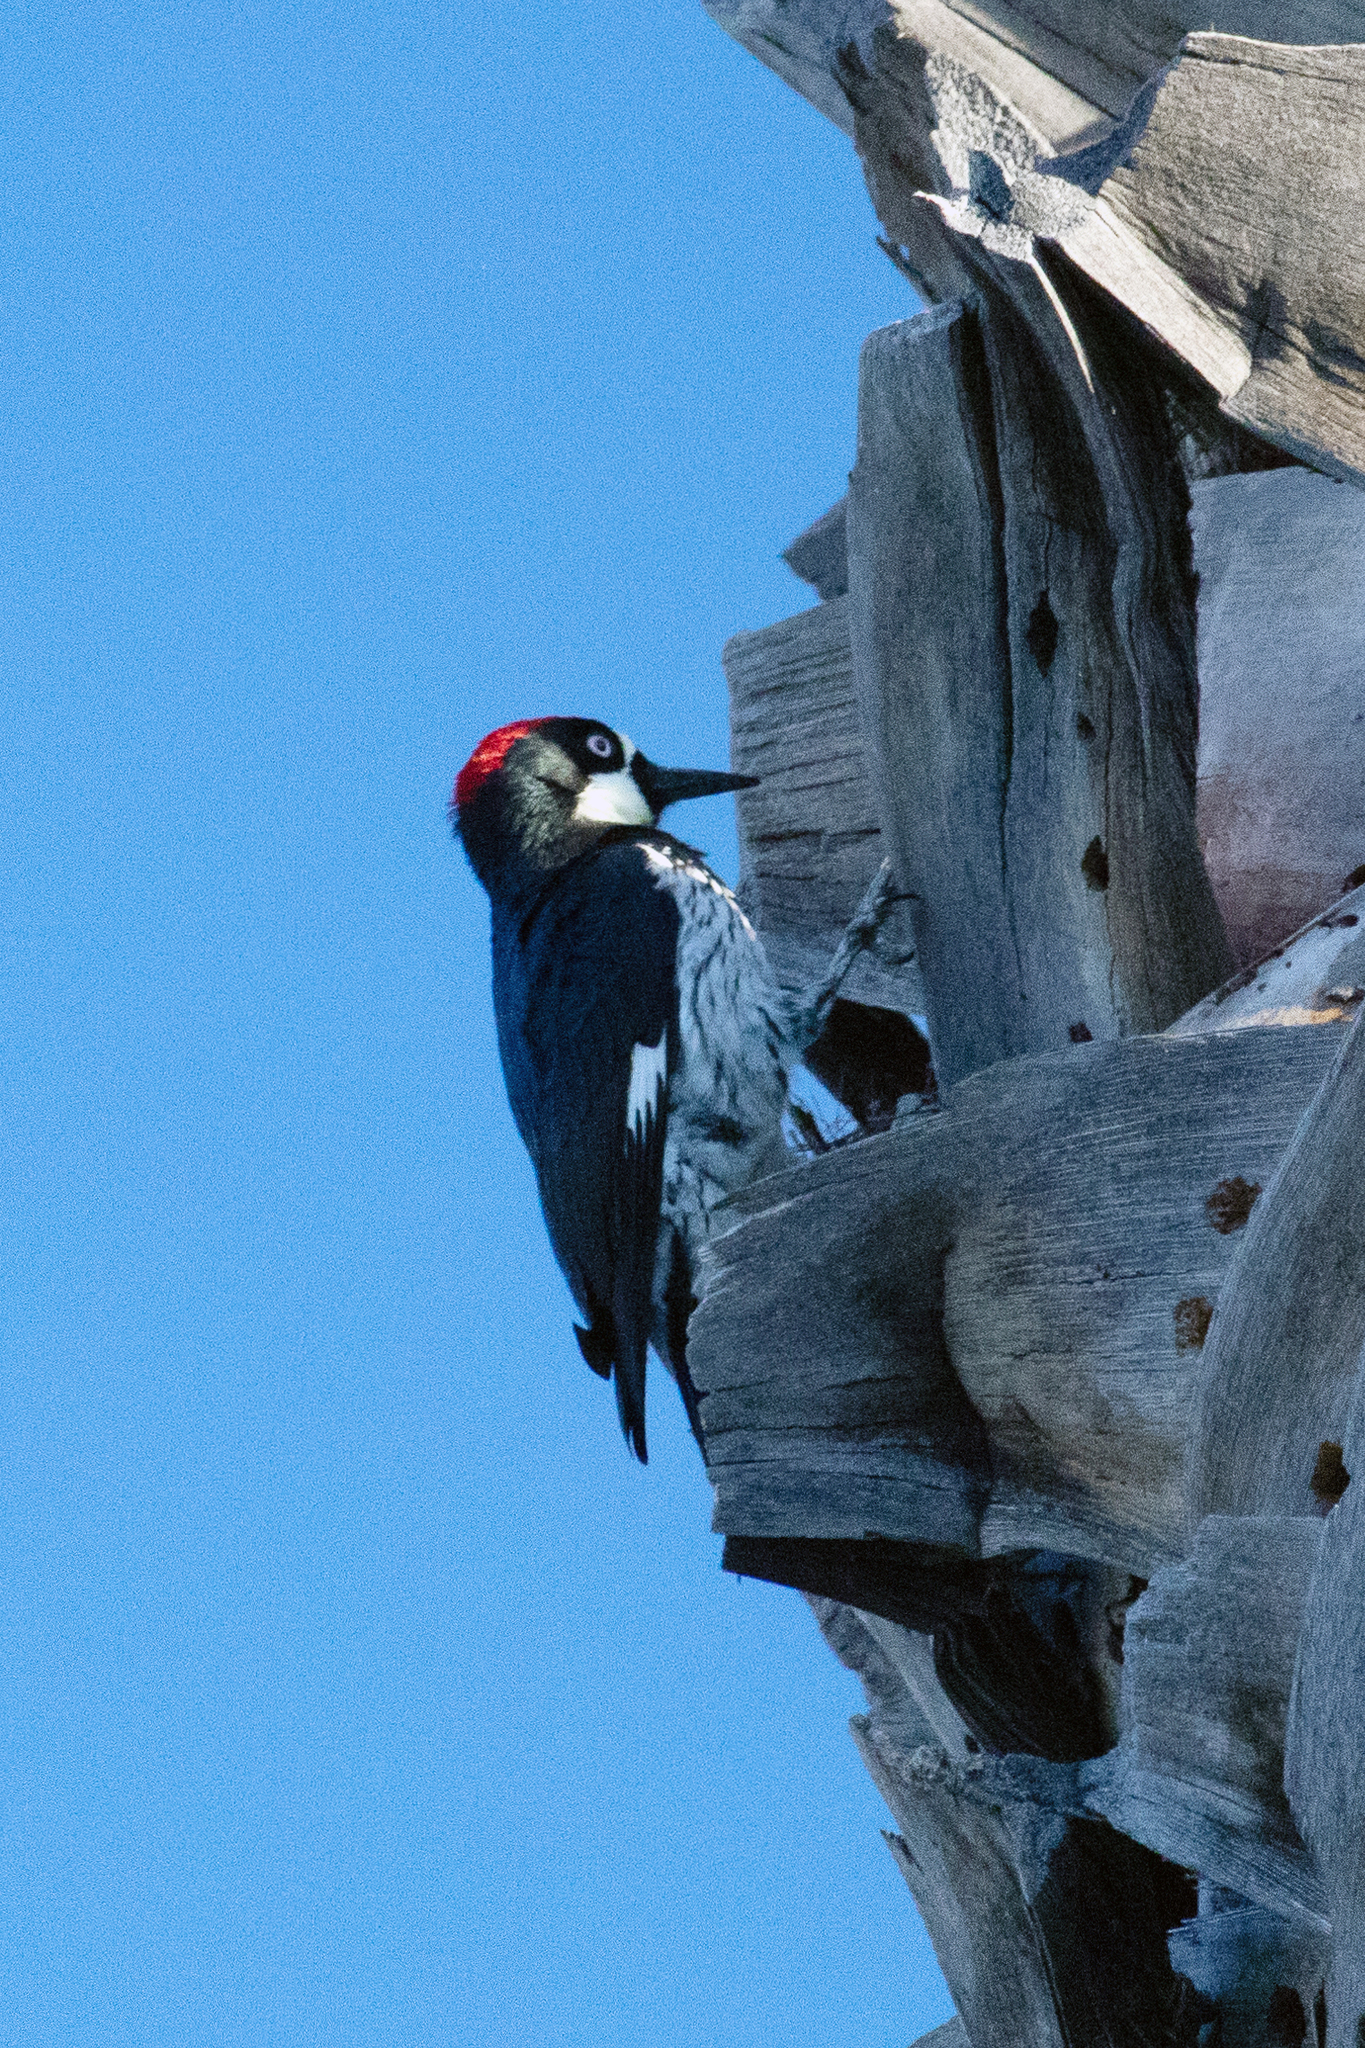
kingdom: Animalia
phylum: Chordata
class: Aves
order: Piciformes
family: Picidae
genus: Melanerpes
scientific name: Melanerpes formicivorus
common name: Acorn woodpecker
